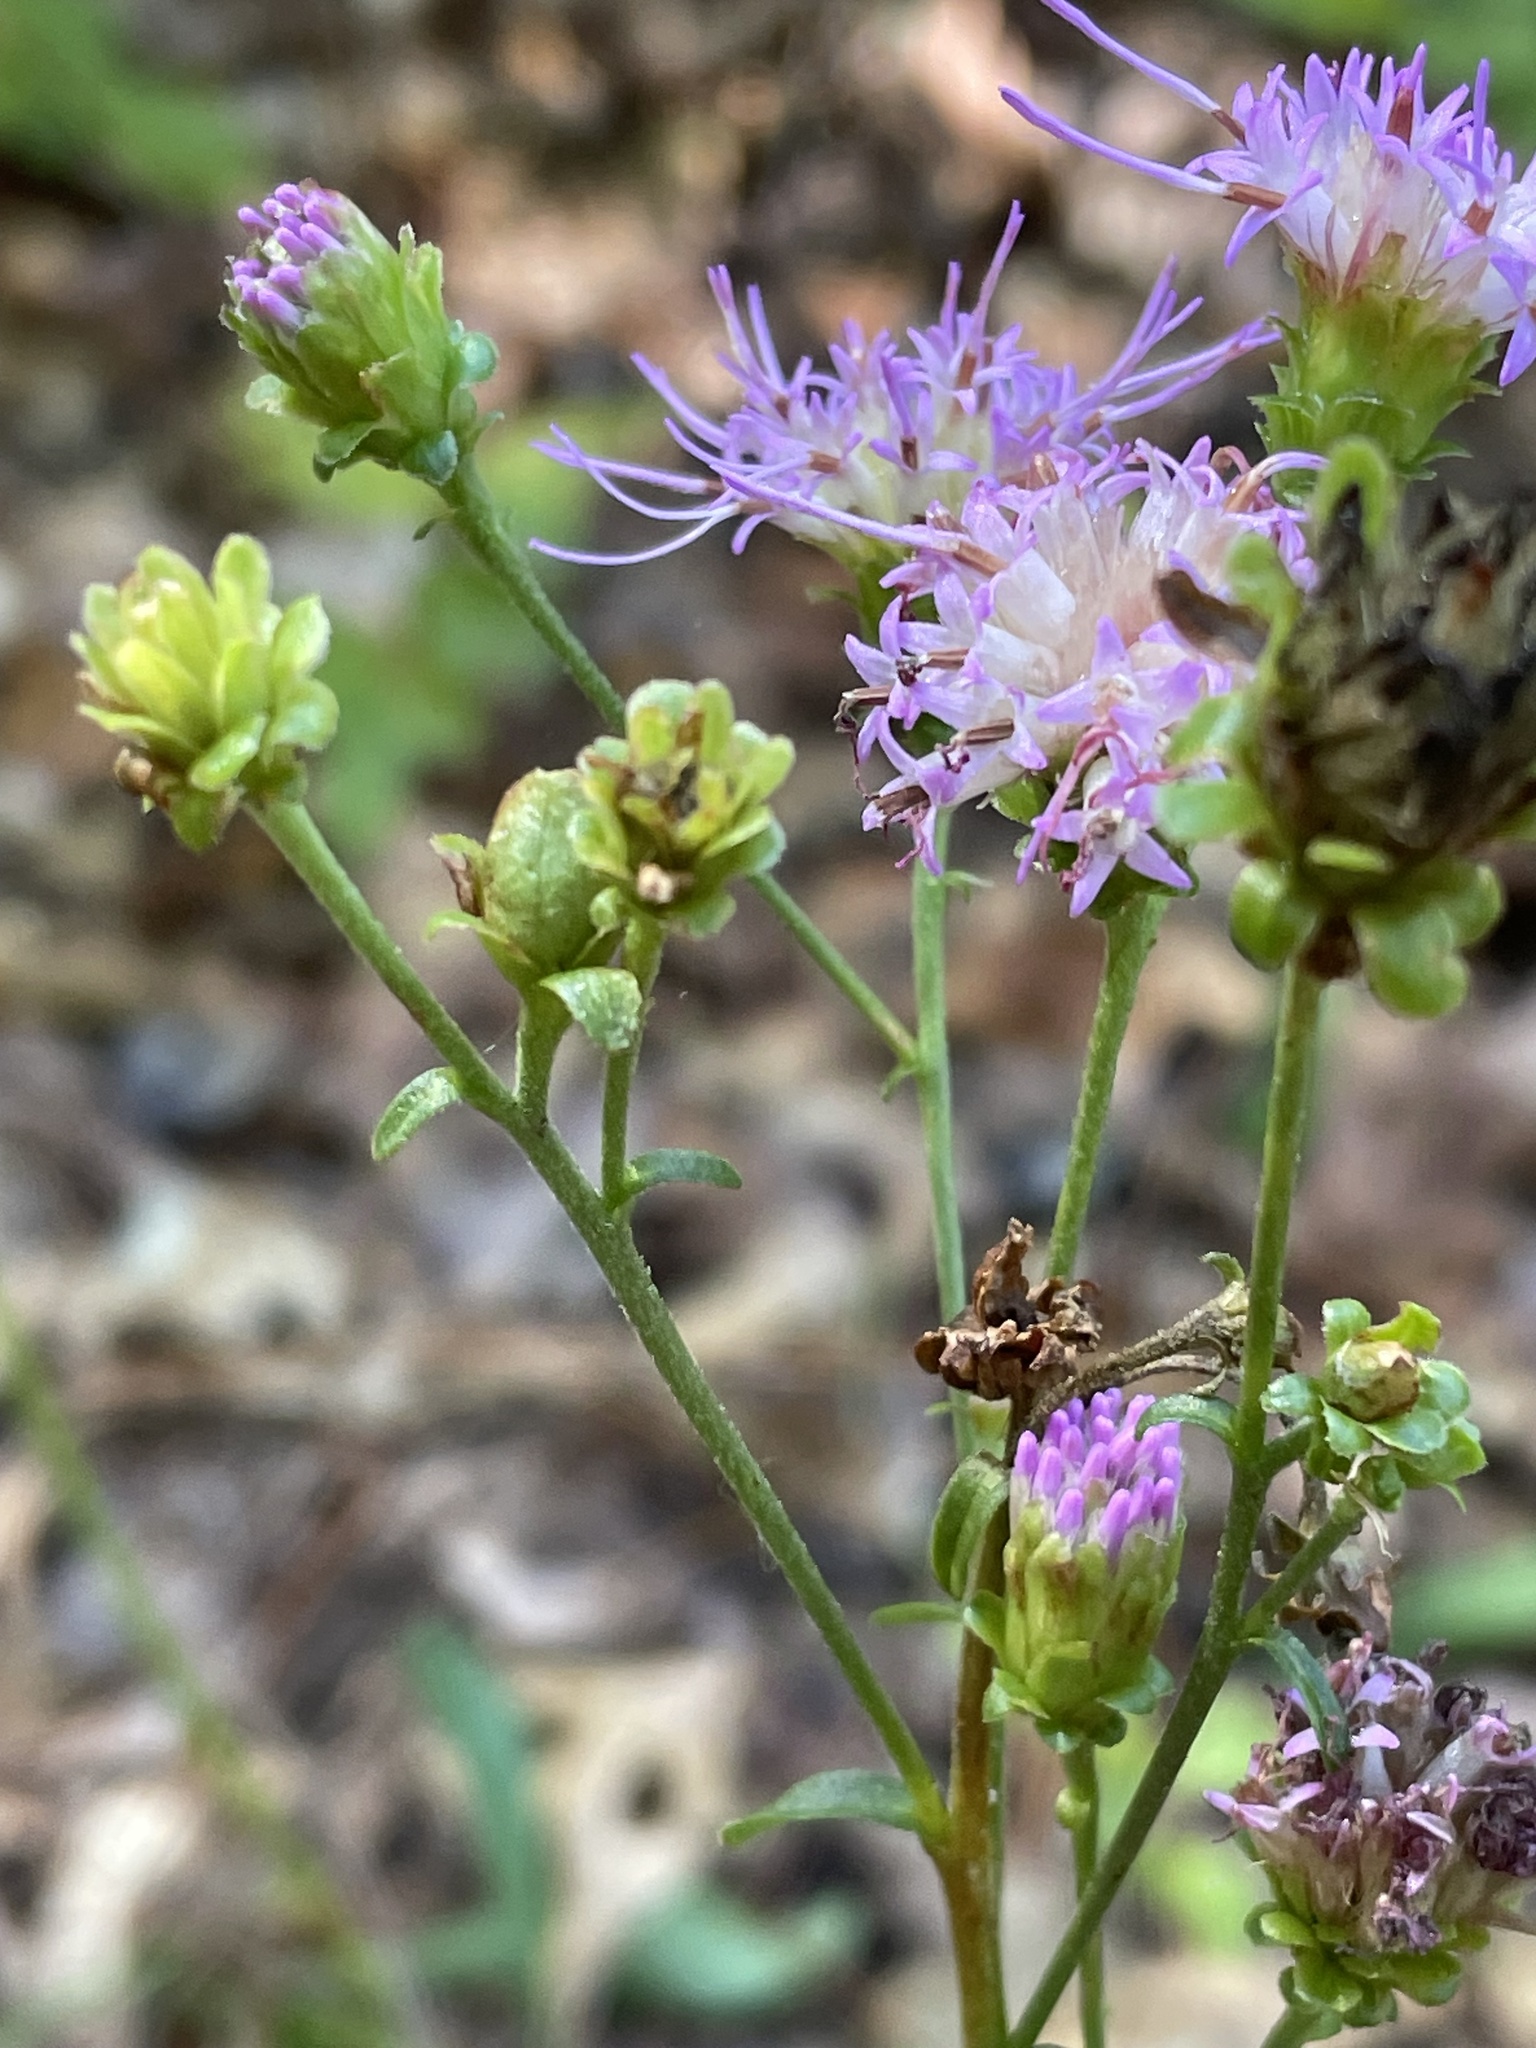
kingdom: Plantae
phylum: Tracheophyta
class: Magnoliopsida
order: Asterales
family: Asteraceae
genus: Carphephorus
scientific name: Carphephorus bellidifolius
